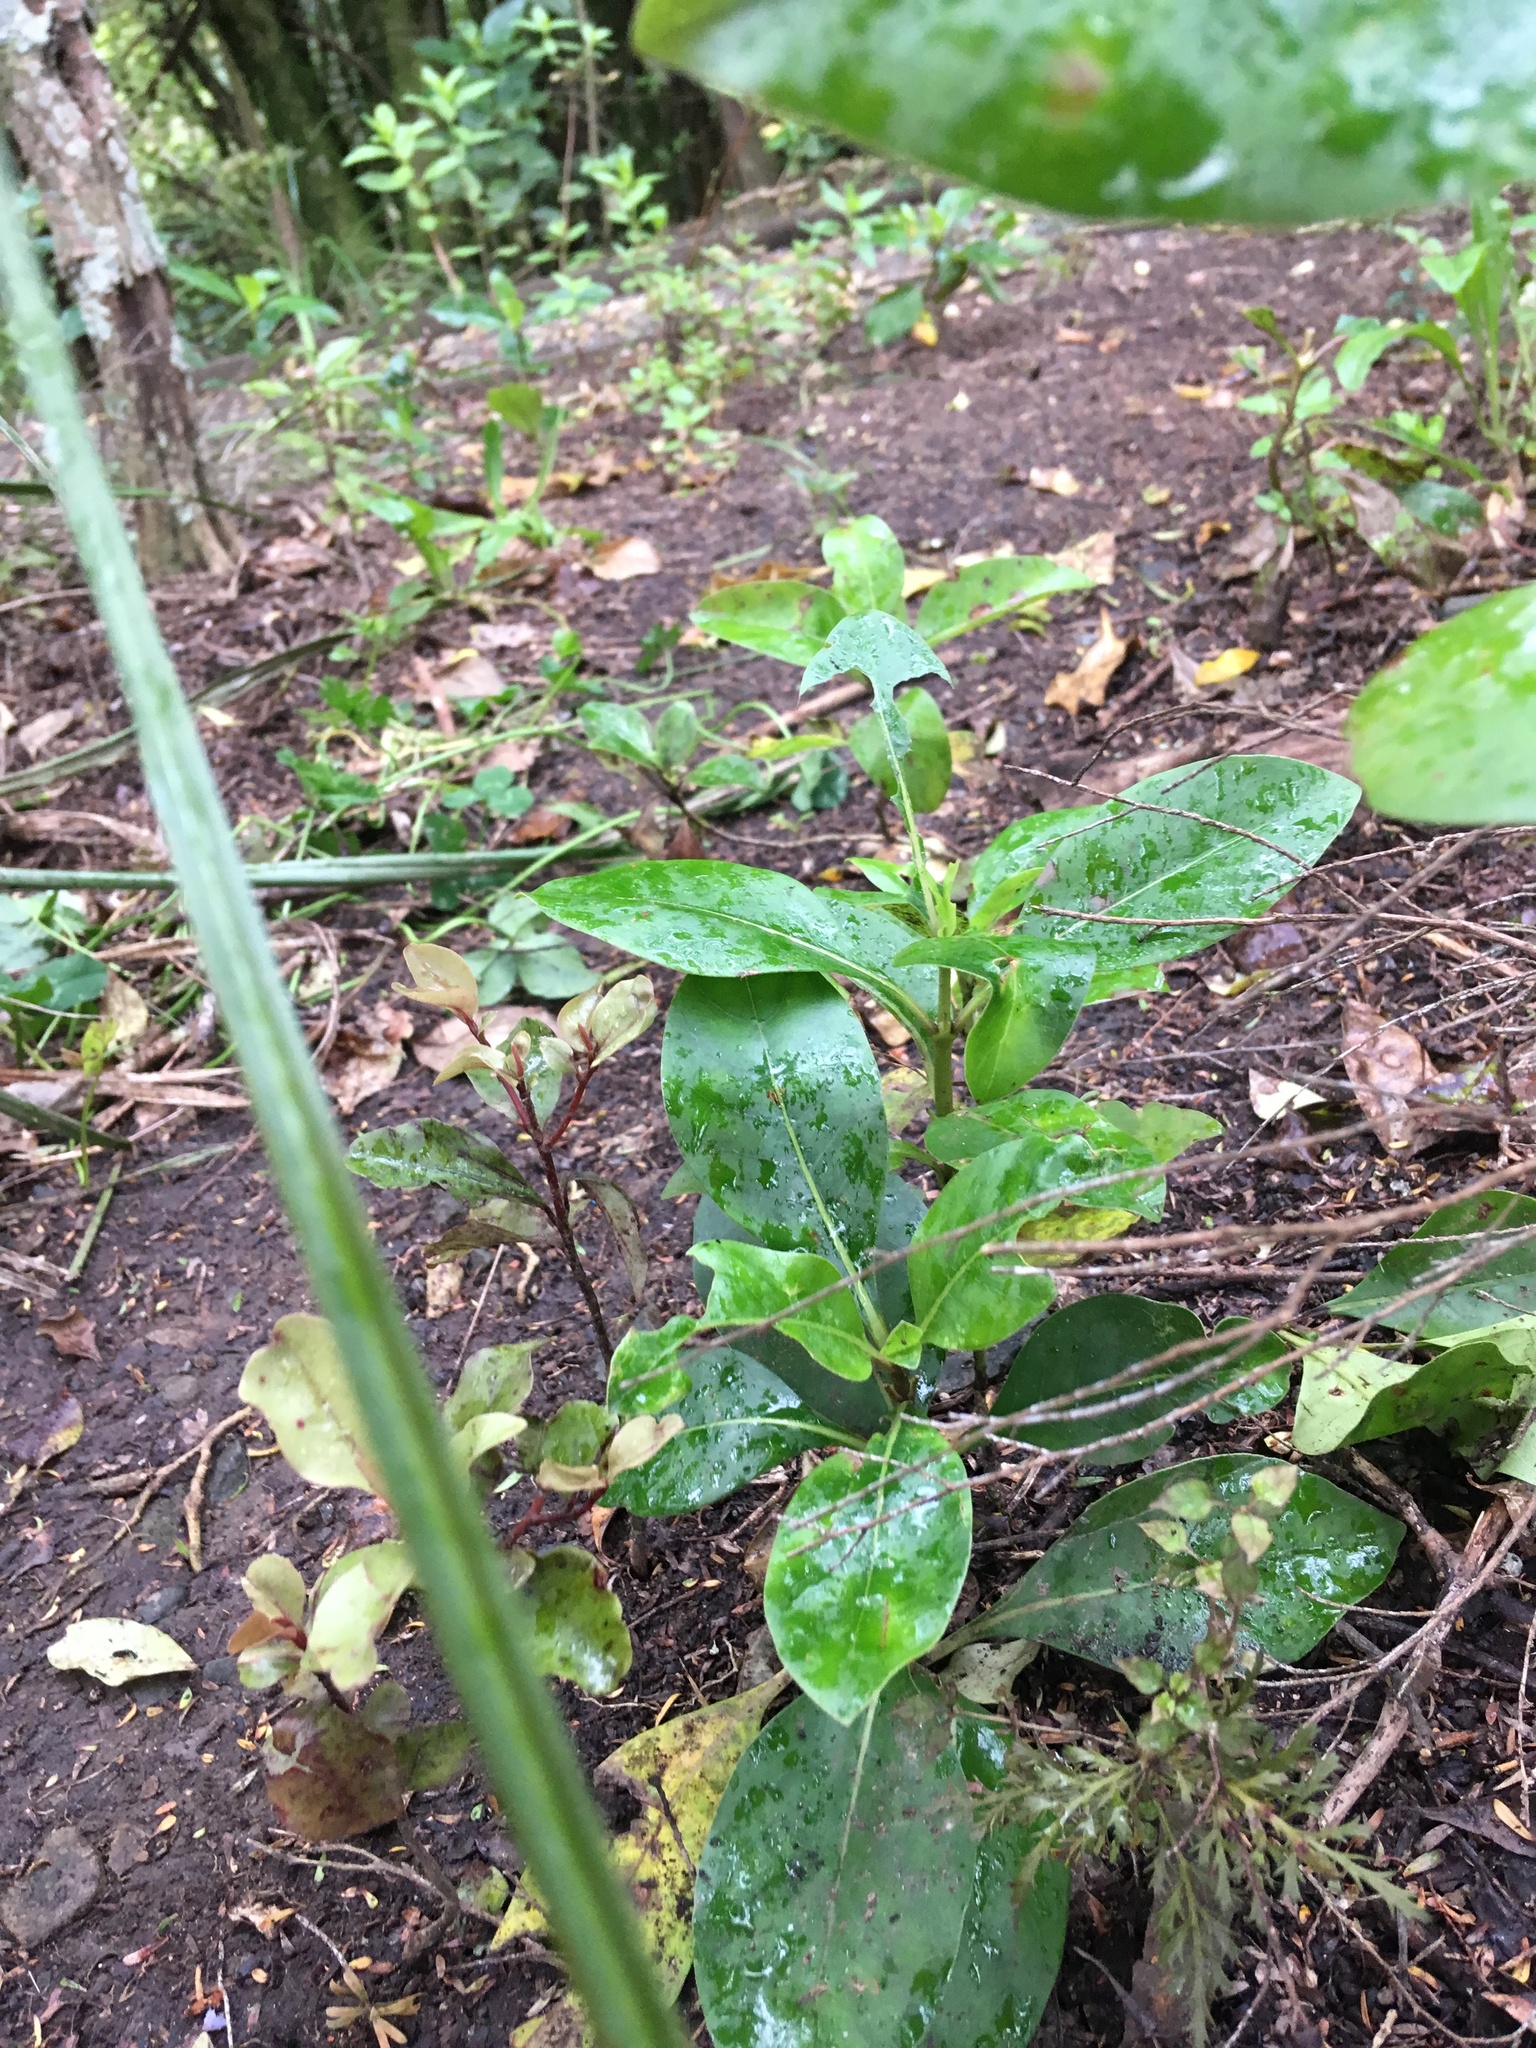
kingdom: Plantae
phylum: Tracheophyta
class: Pinopsida
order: Pinales
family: Phyllocladaceae
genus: Phyllocladus
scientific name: Phyllocladus trichomanoides
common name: Celery pine
